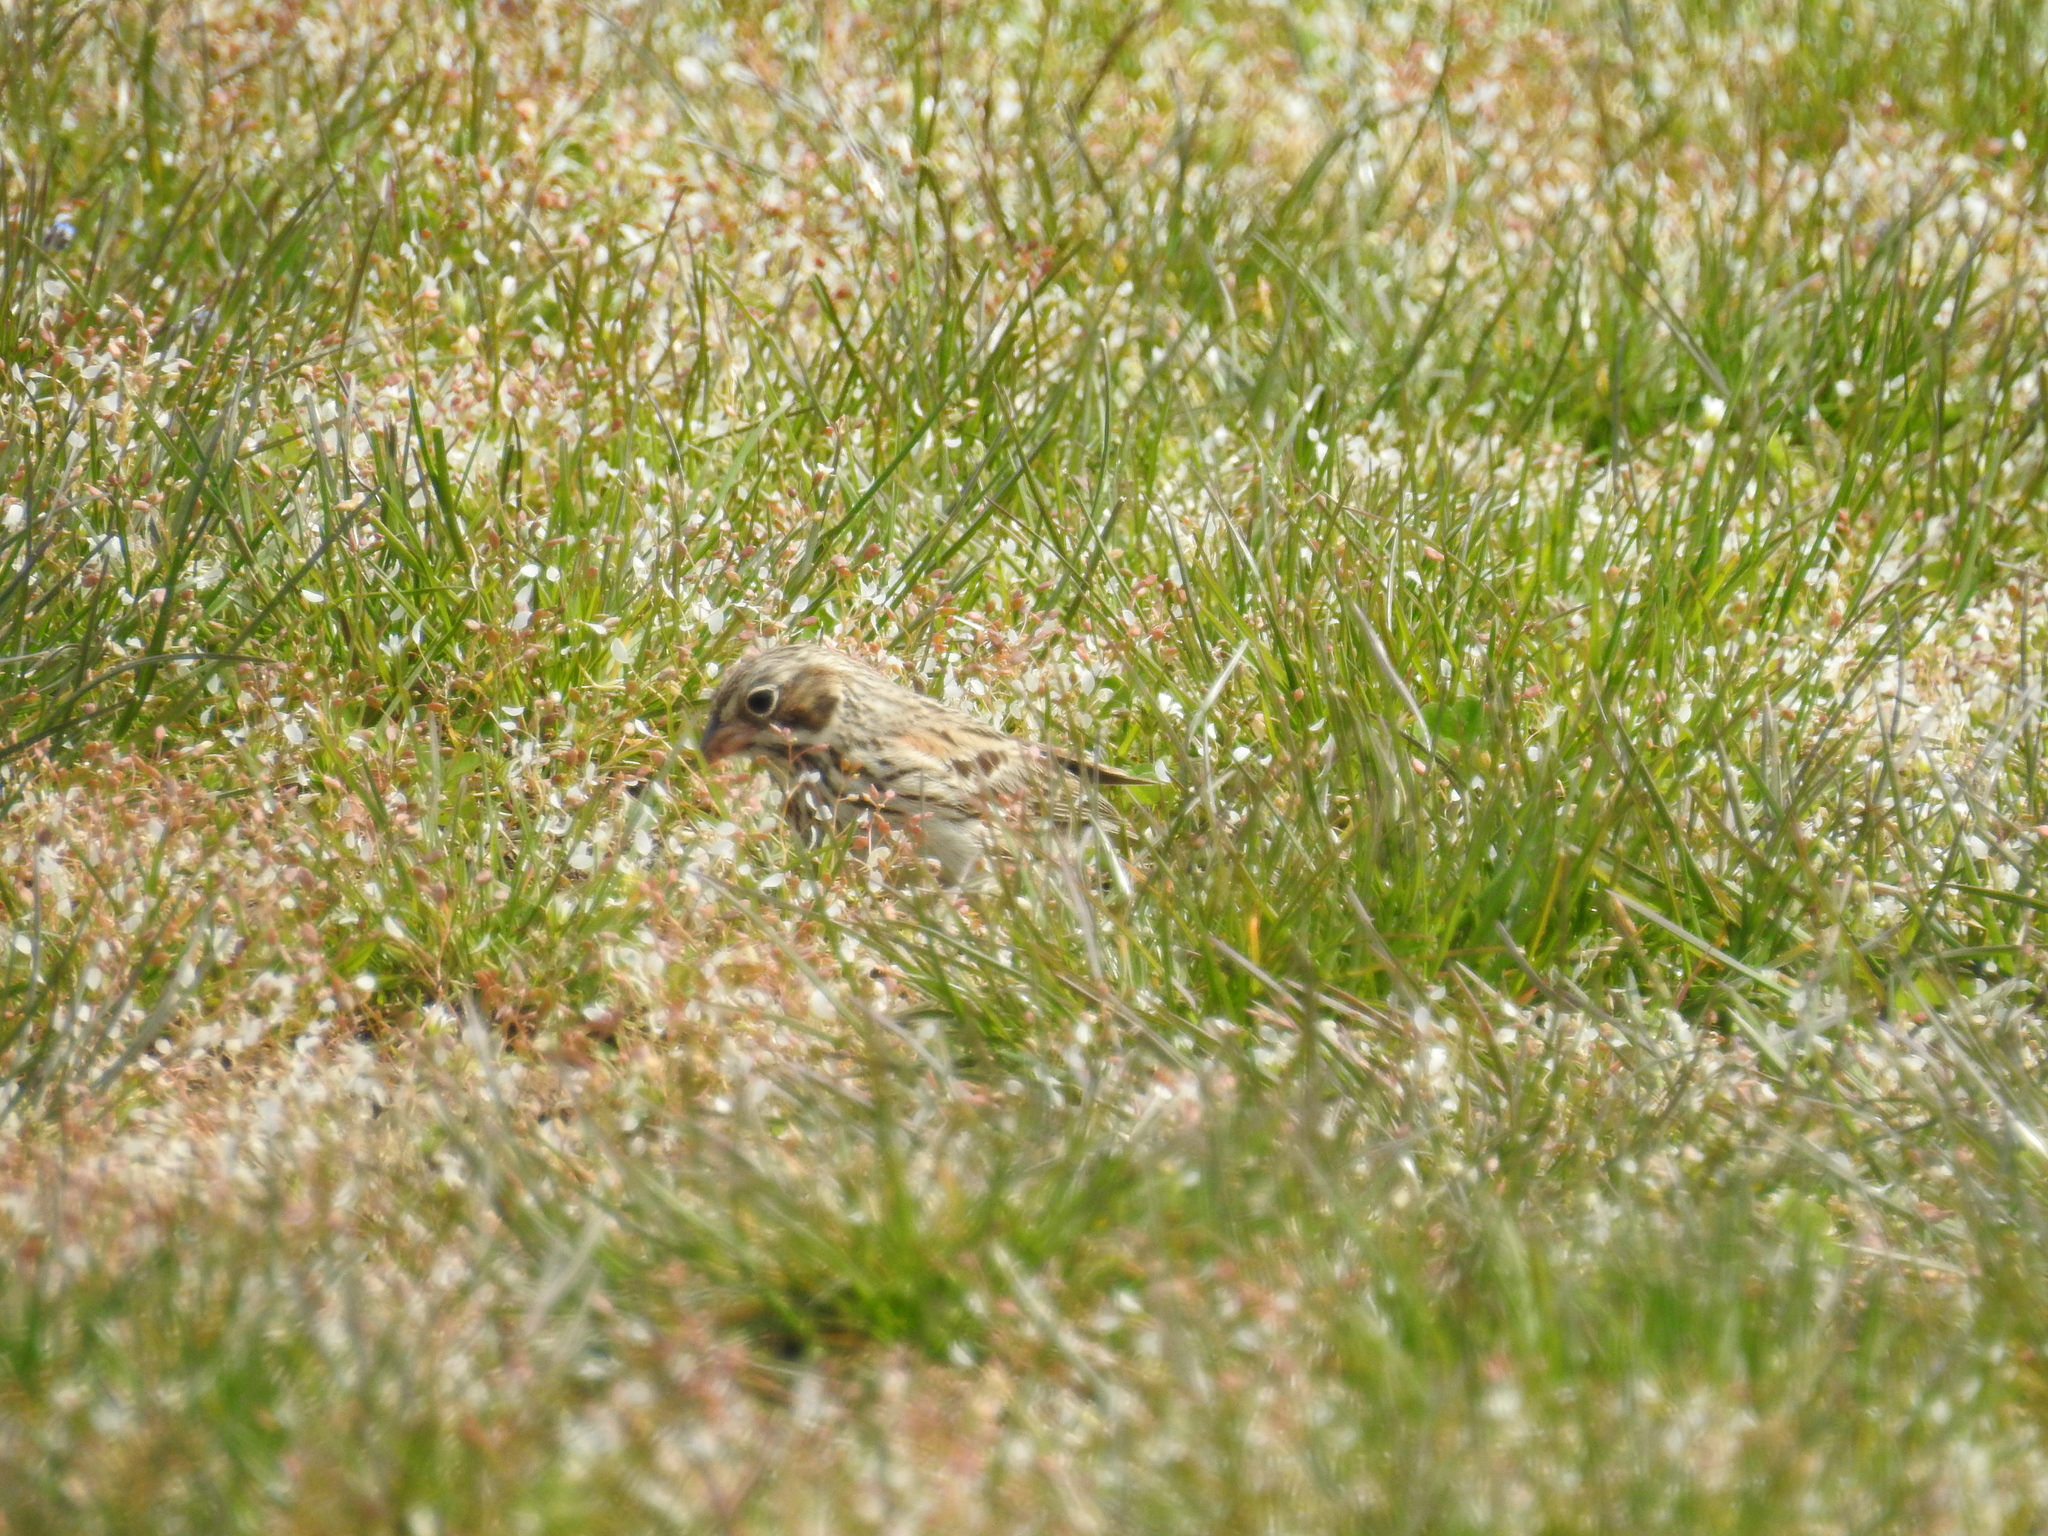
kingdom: Animalia
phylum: Chordata
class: Aves
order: Passeriformes
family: Passerellidae
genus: Pooecetes
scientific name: Pooecetes gramineus
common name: Vesper sparrow
